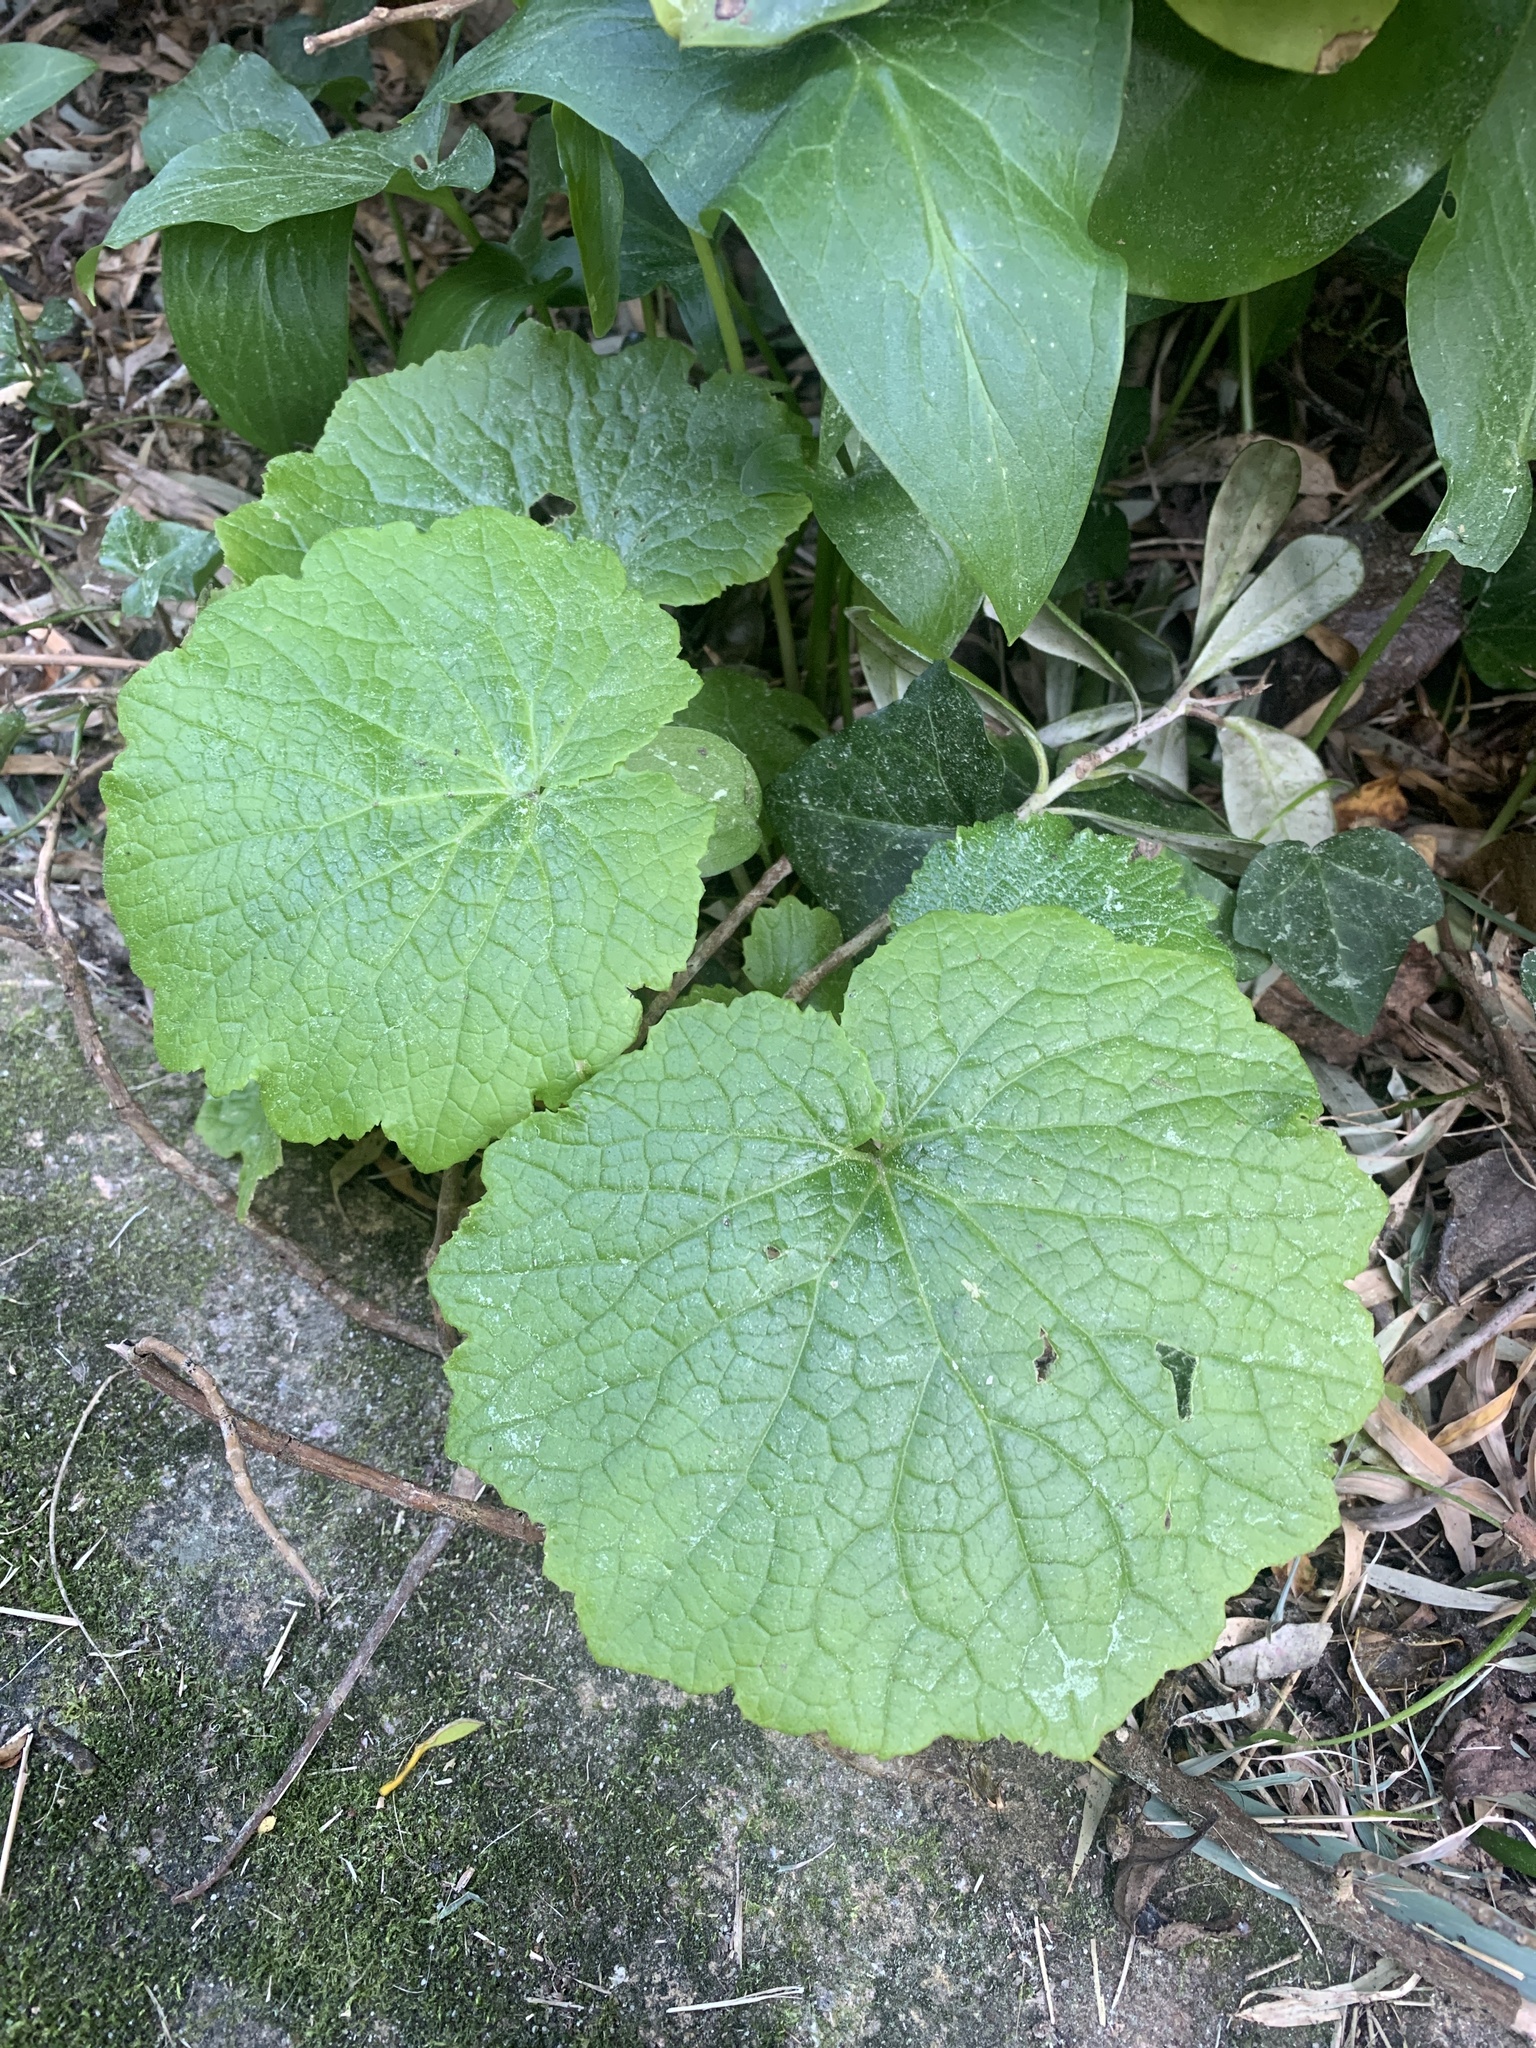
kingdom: Plantae
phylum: Tracheophyta
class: Magnoliopsida
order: Brassicales
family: Brassicaceae
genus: Alliaria
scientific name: Alliaria petiolata
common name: Garlic mustard
